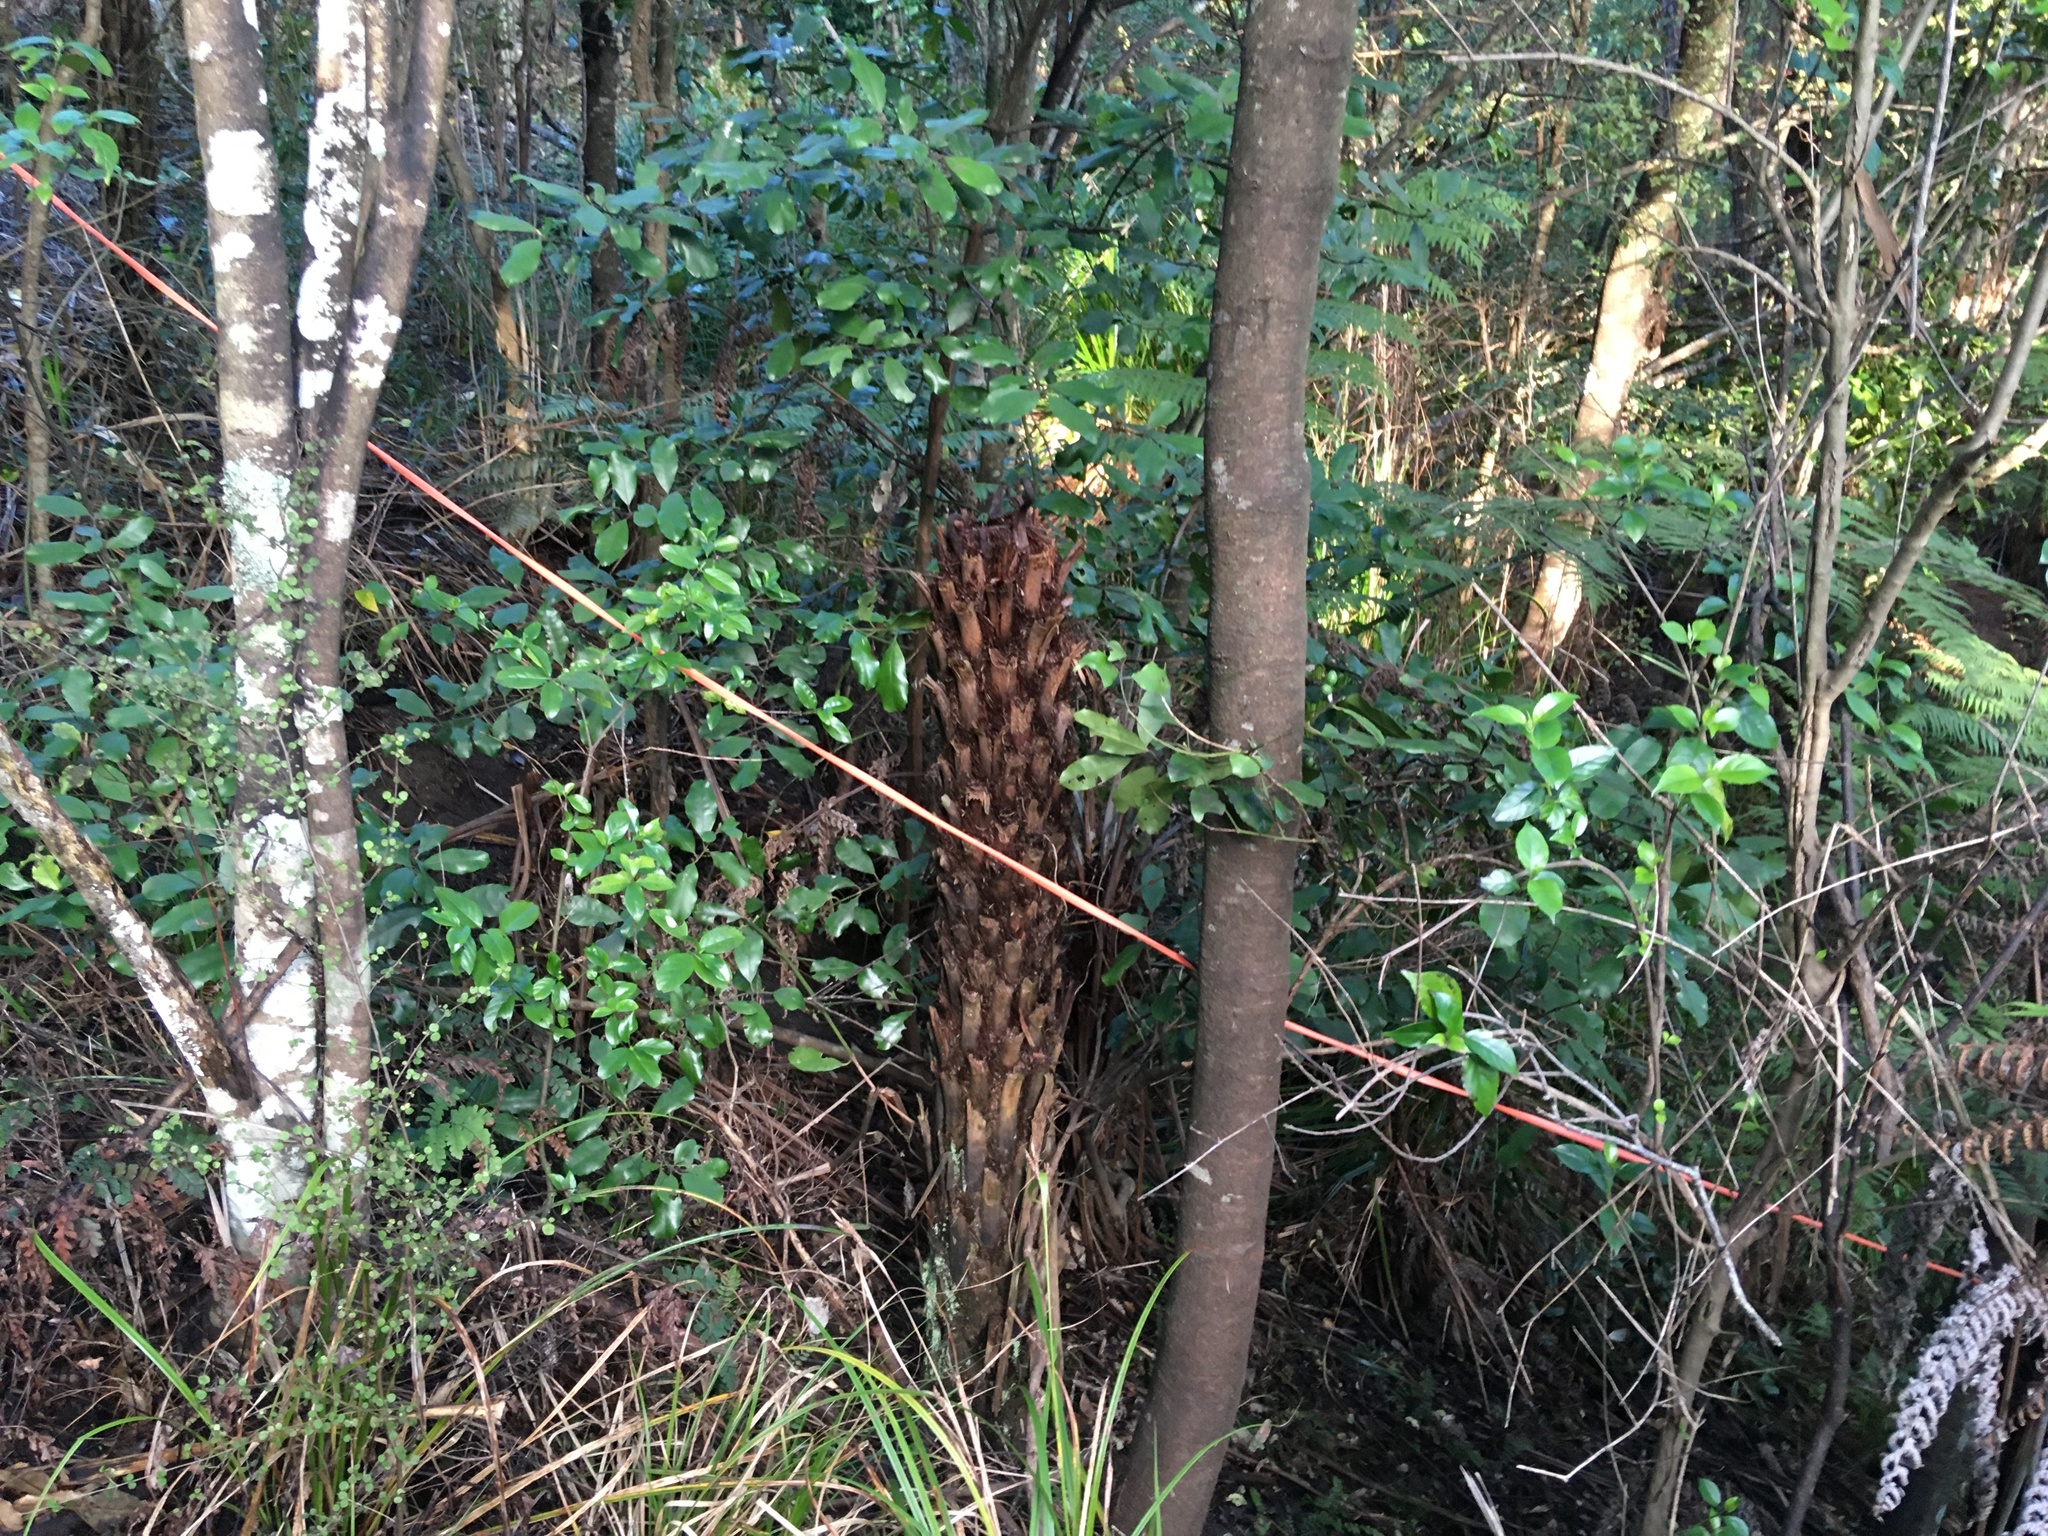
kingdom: Plantae
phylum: Tracheophyta
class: Polypodiopsida
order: Cyatheales
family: Cyatheaceae
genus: Alsophila
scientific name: Alsophila dealbata
